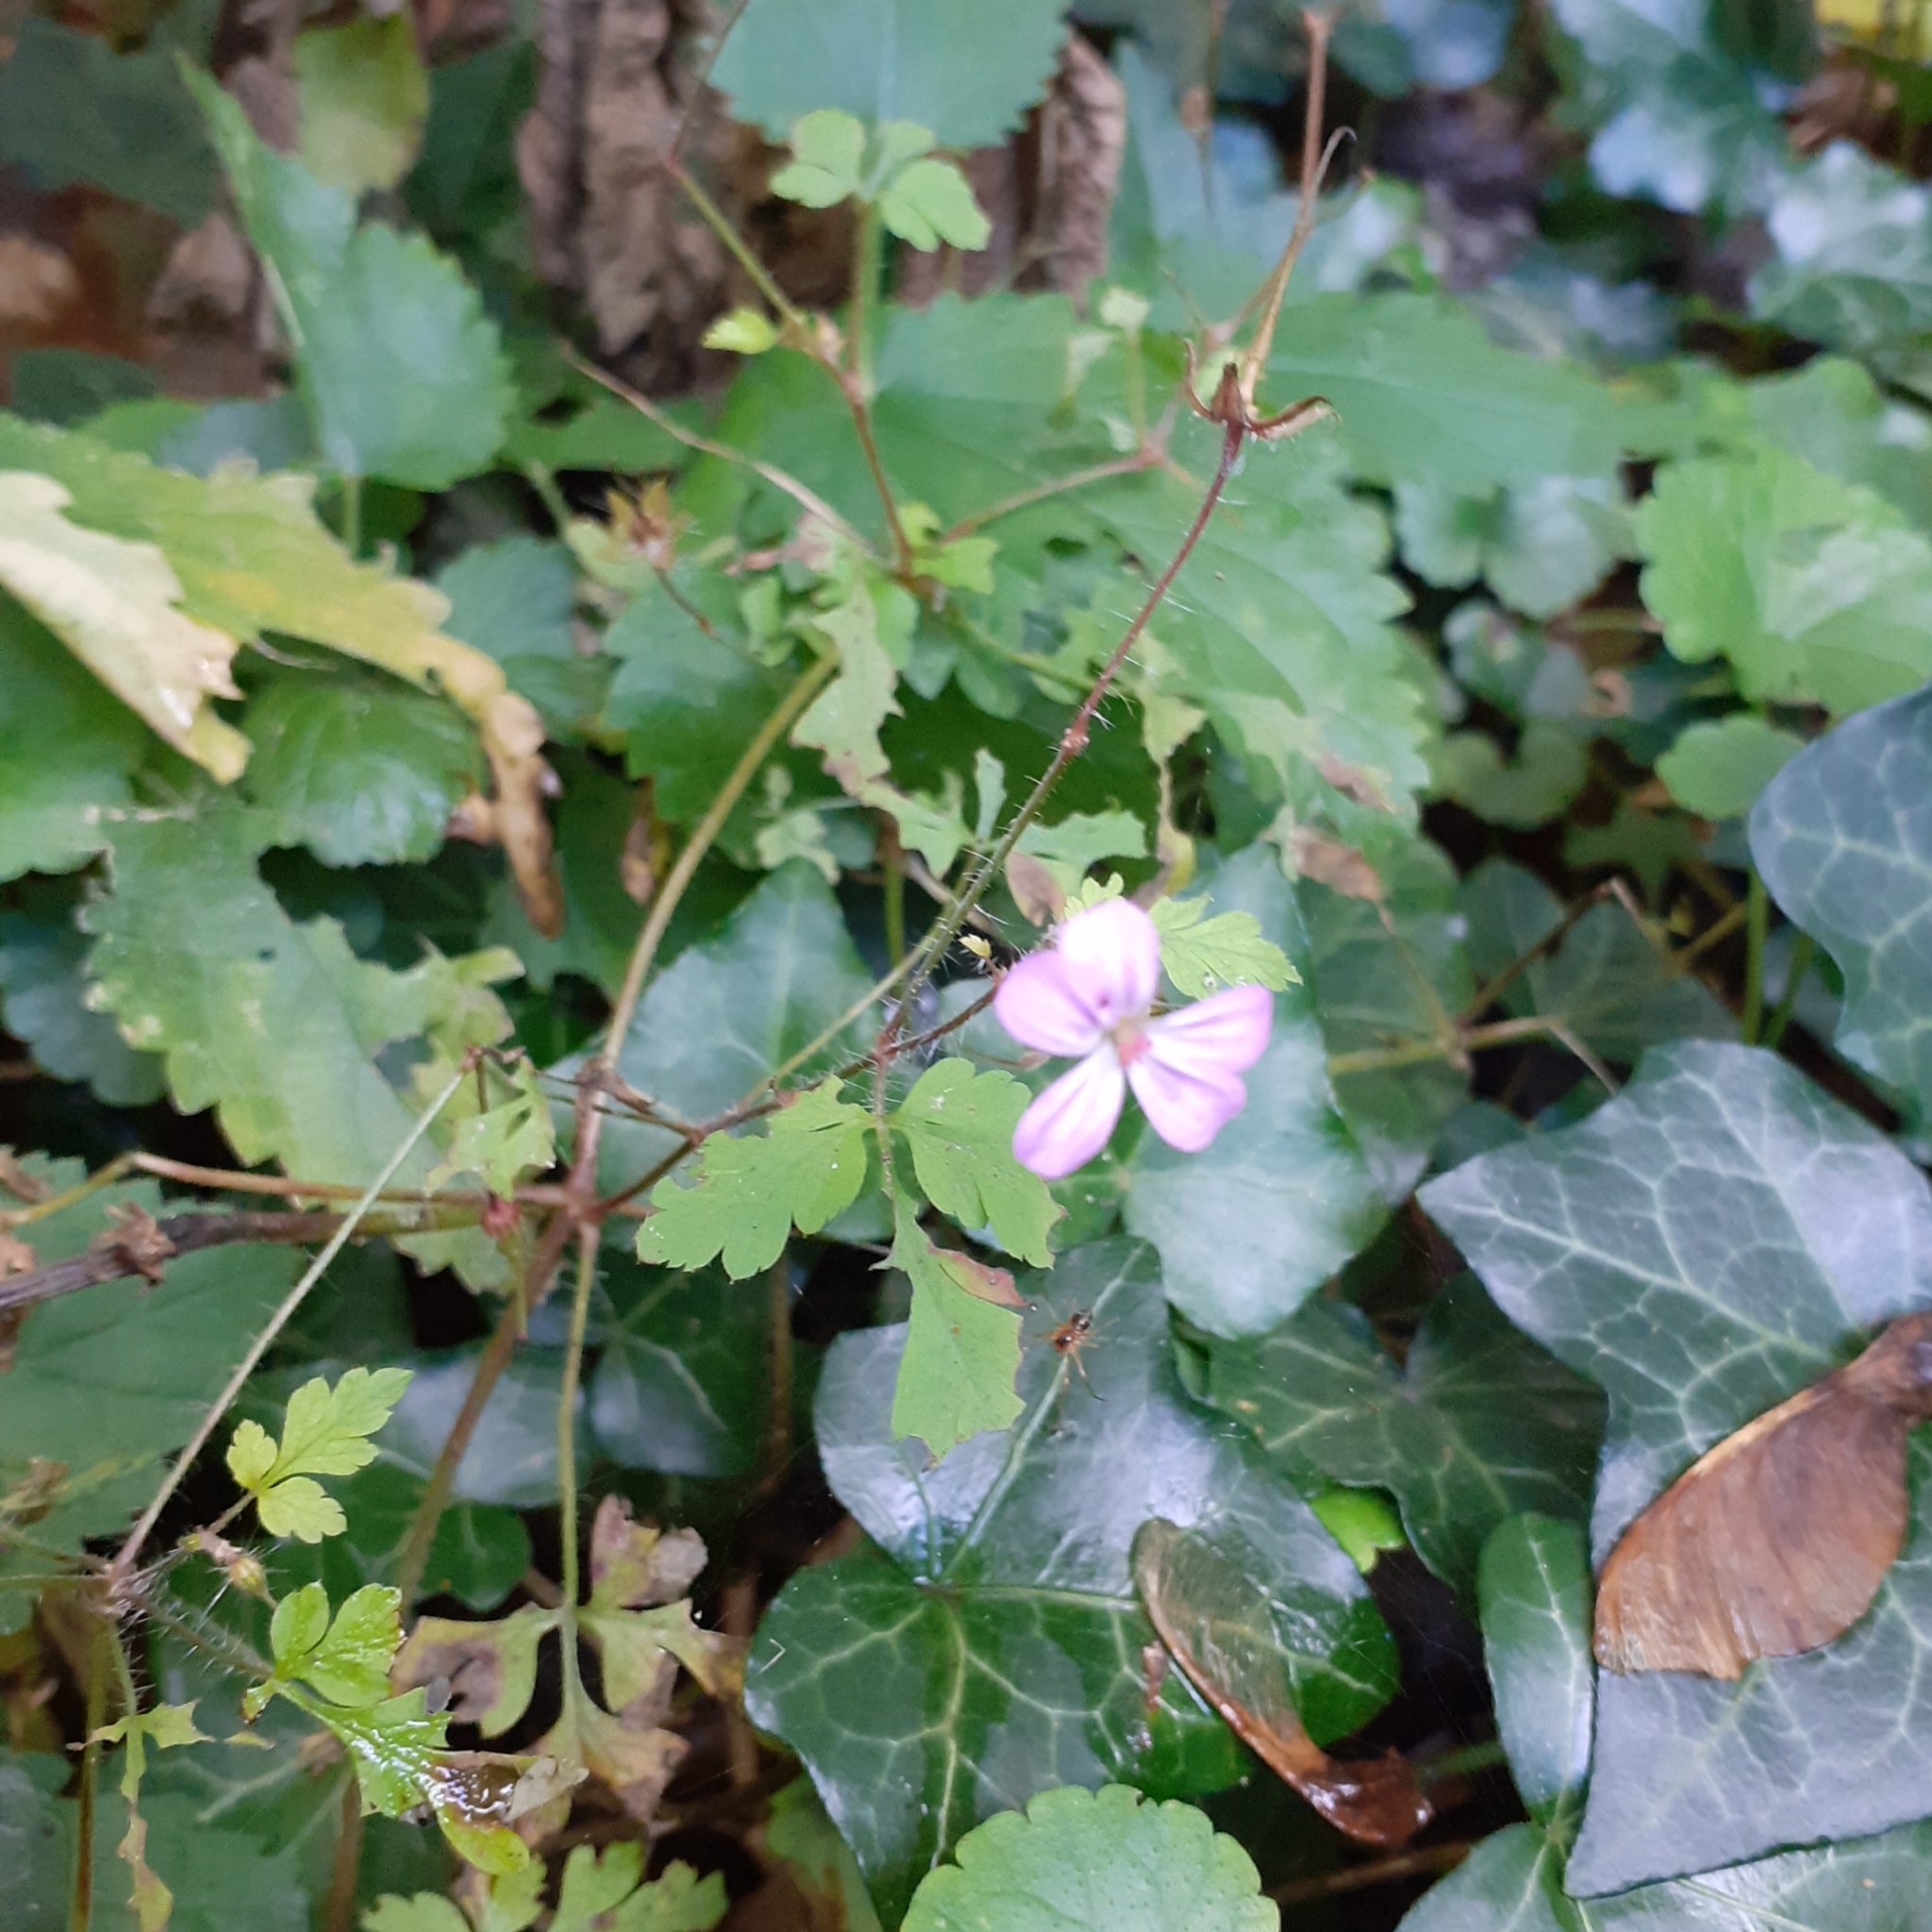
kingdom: Plantae
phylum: Tracheophyta
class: Magnoliopsida
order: Geraniales
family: Geraniaceae
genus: Geranium
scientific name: Geranium robertianum
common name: Herb-robert
